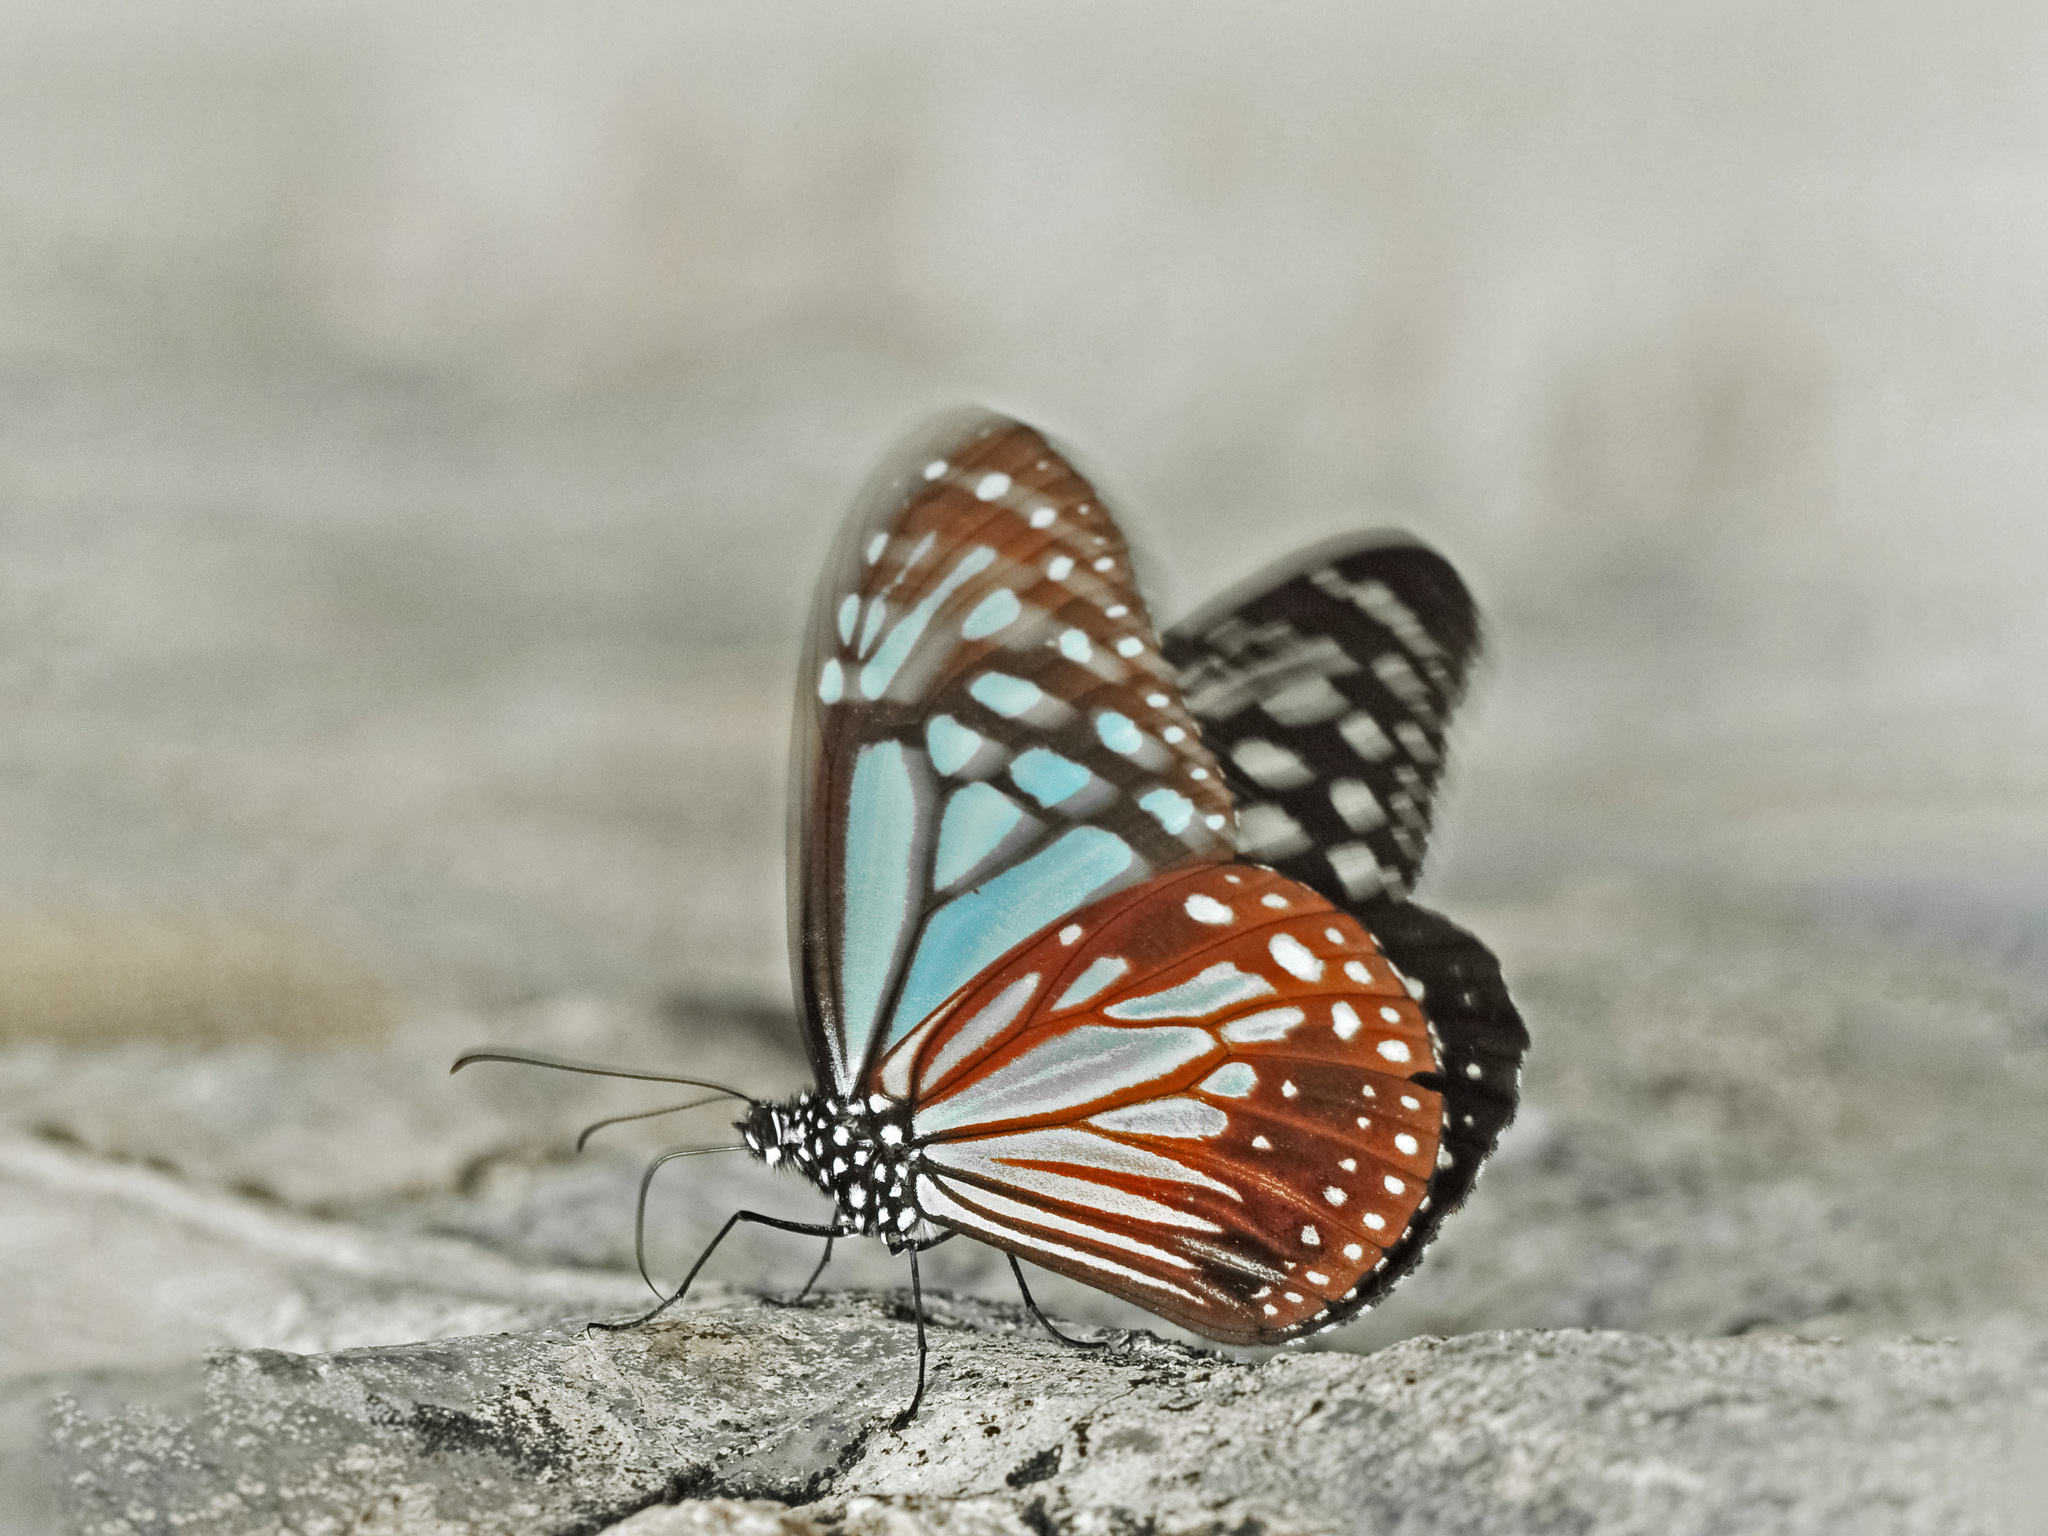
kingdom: Animalia
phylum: Arthropoda
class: Insecta
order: Lepidoptera
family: Nymphalidae
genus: Parantica
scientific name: Parantica melaneus
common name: Chocolate tiger
